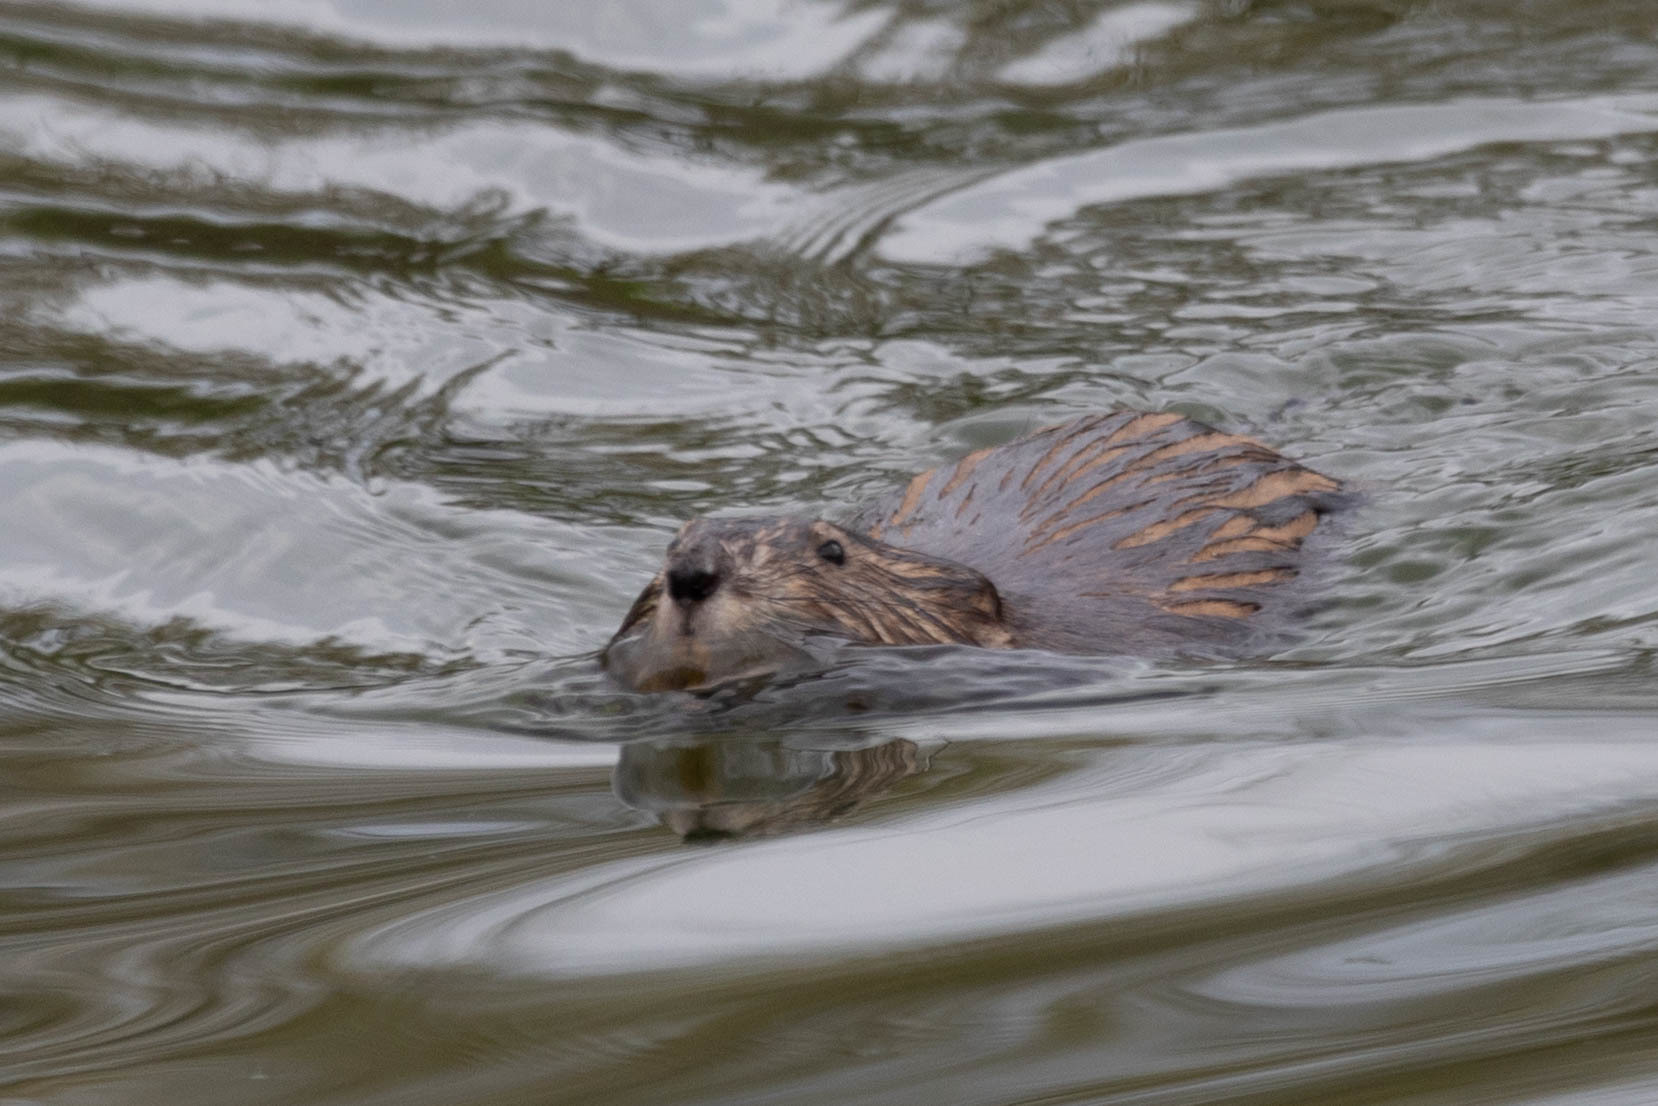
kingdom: Animalia
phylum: Chordata
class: Mammalia
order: Rodentia
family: Cricetidae
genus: Ondatra
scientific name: Ondatra zibethicus
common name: Muskrat
